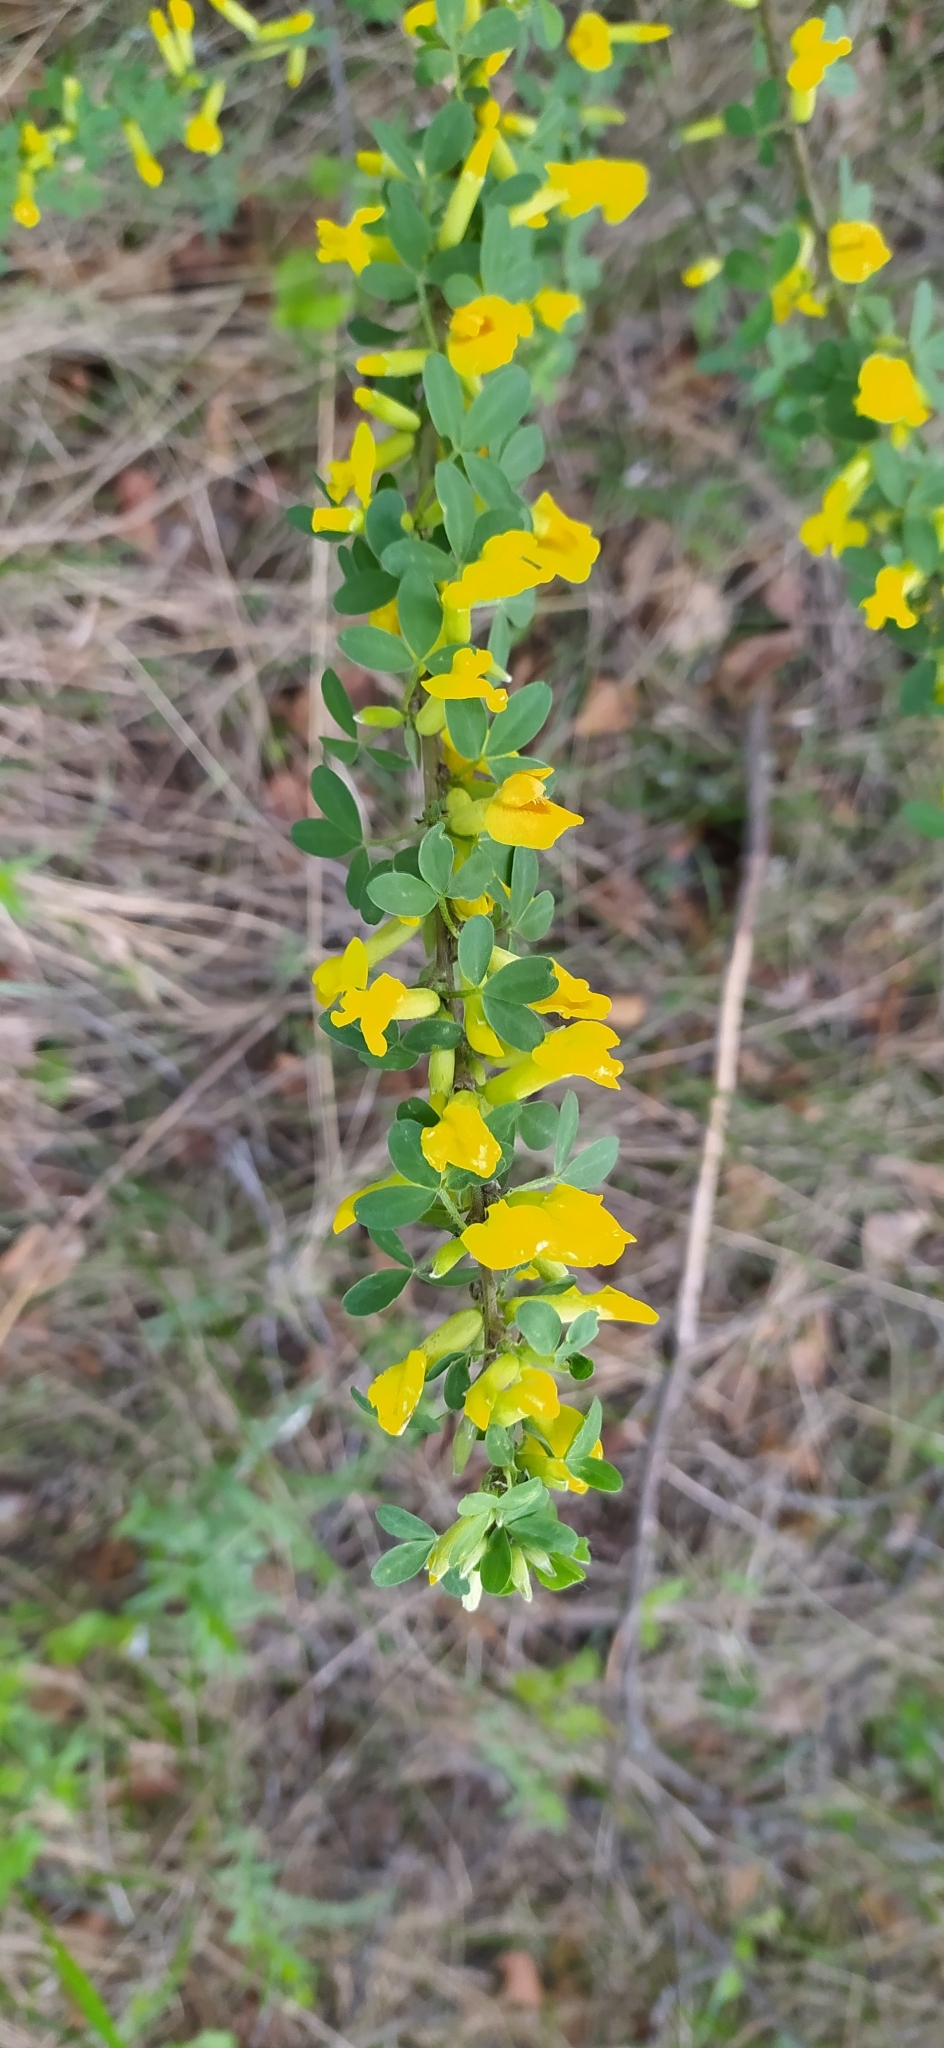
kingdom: Plantae
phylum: Tracheophyta
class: Magnoliopsida
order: Fabales
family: Fabaceae
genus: Chamaecytisus
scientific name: Chamaecytisus ruthenicus
